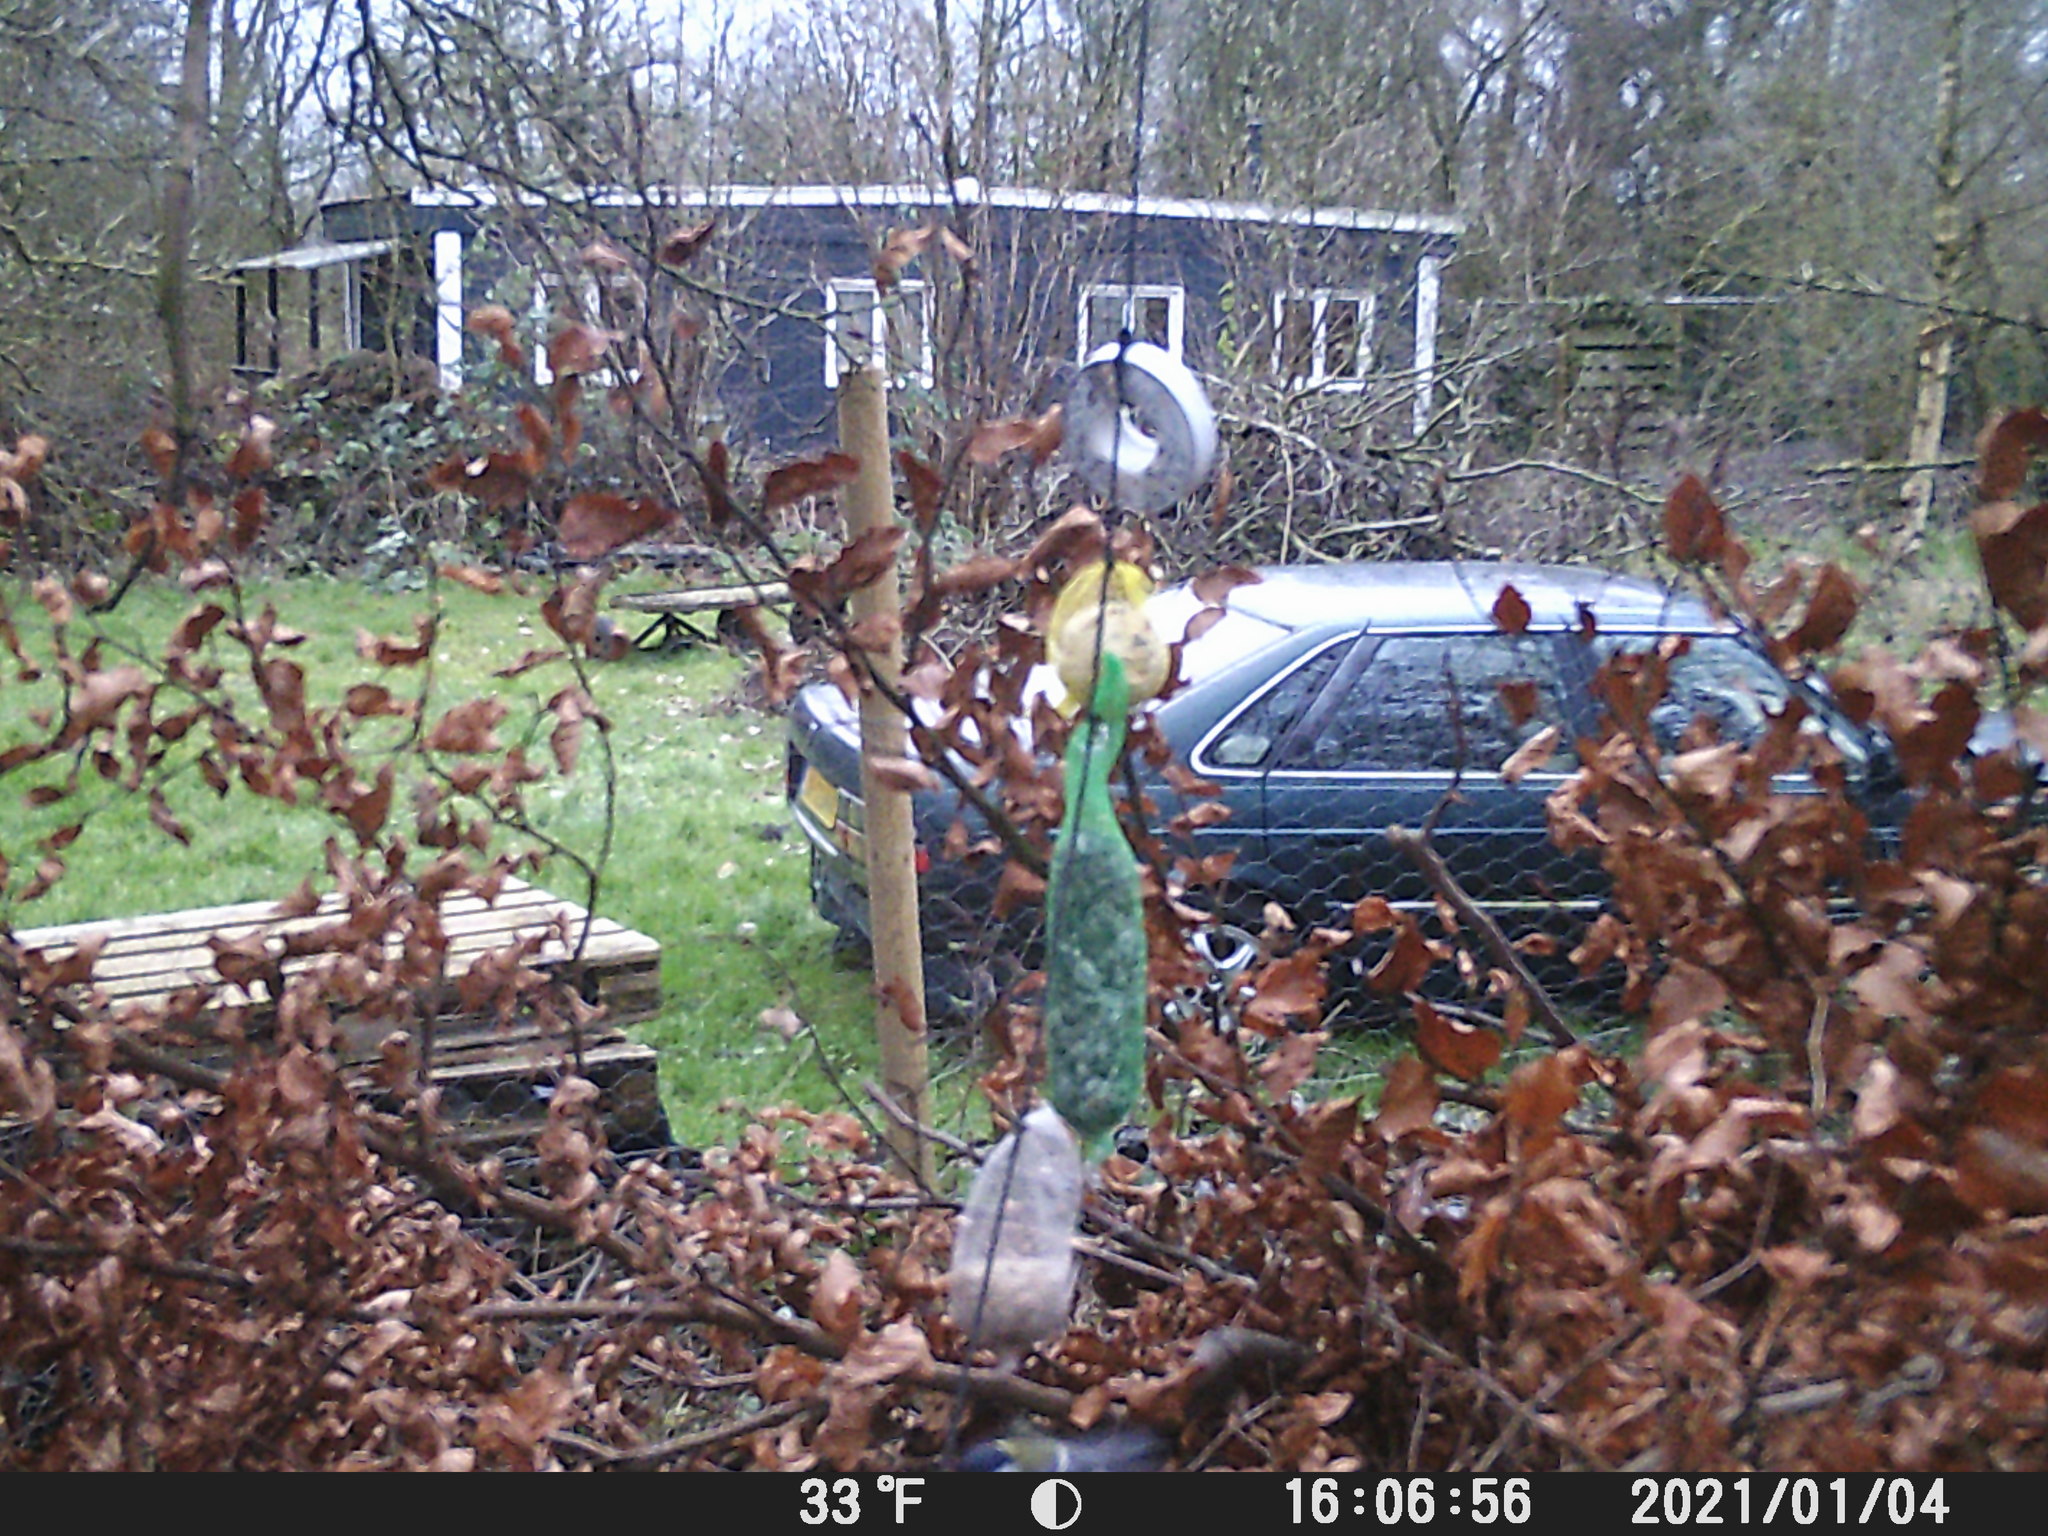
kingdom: Animalia
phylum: Chordata
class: Aves
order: Passeriformes
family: Paridae
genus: Parus
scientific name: Parus major
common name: Great tit
